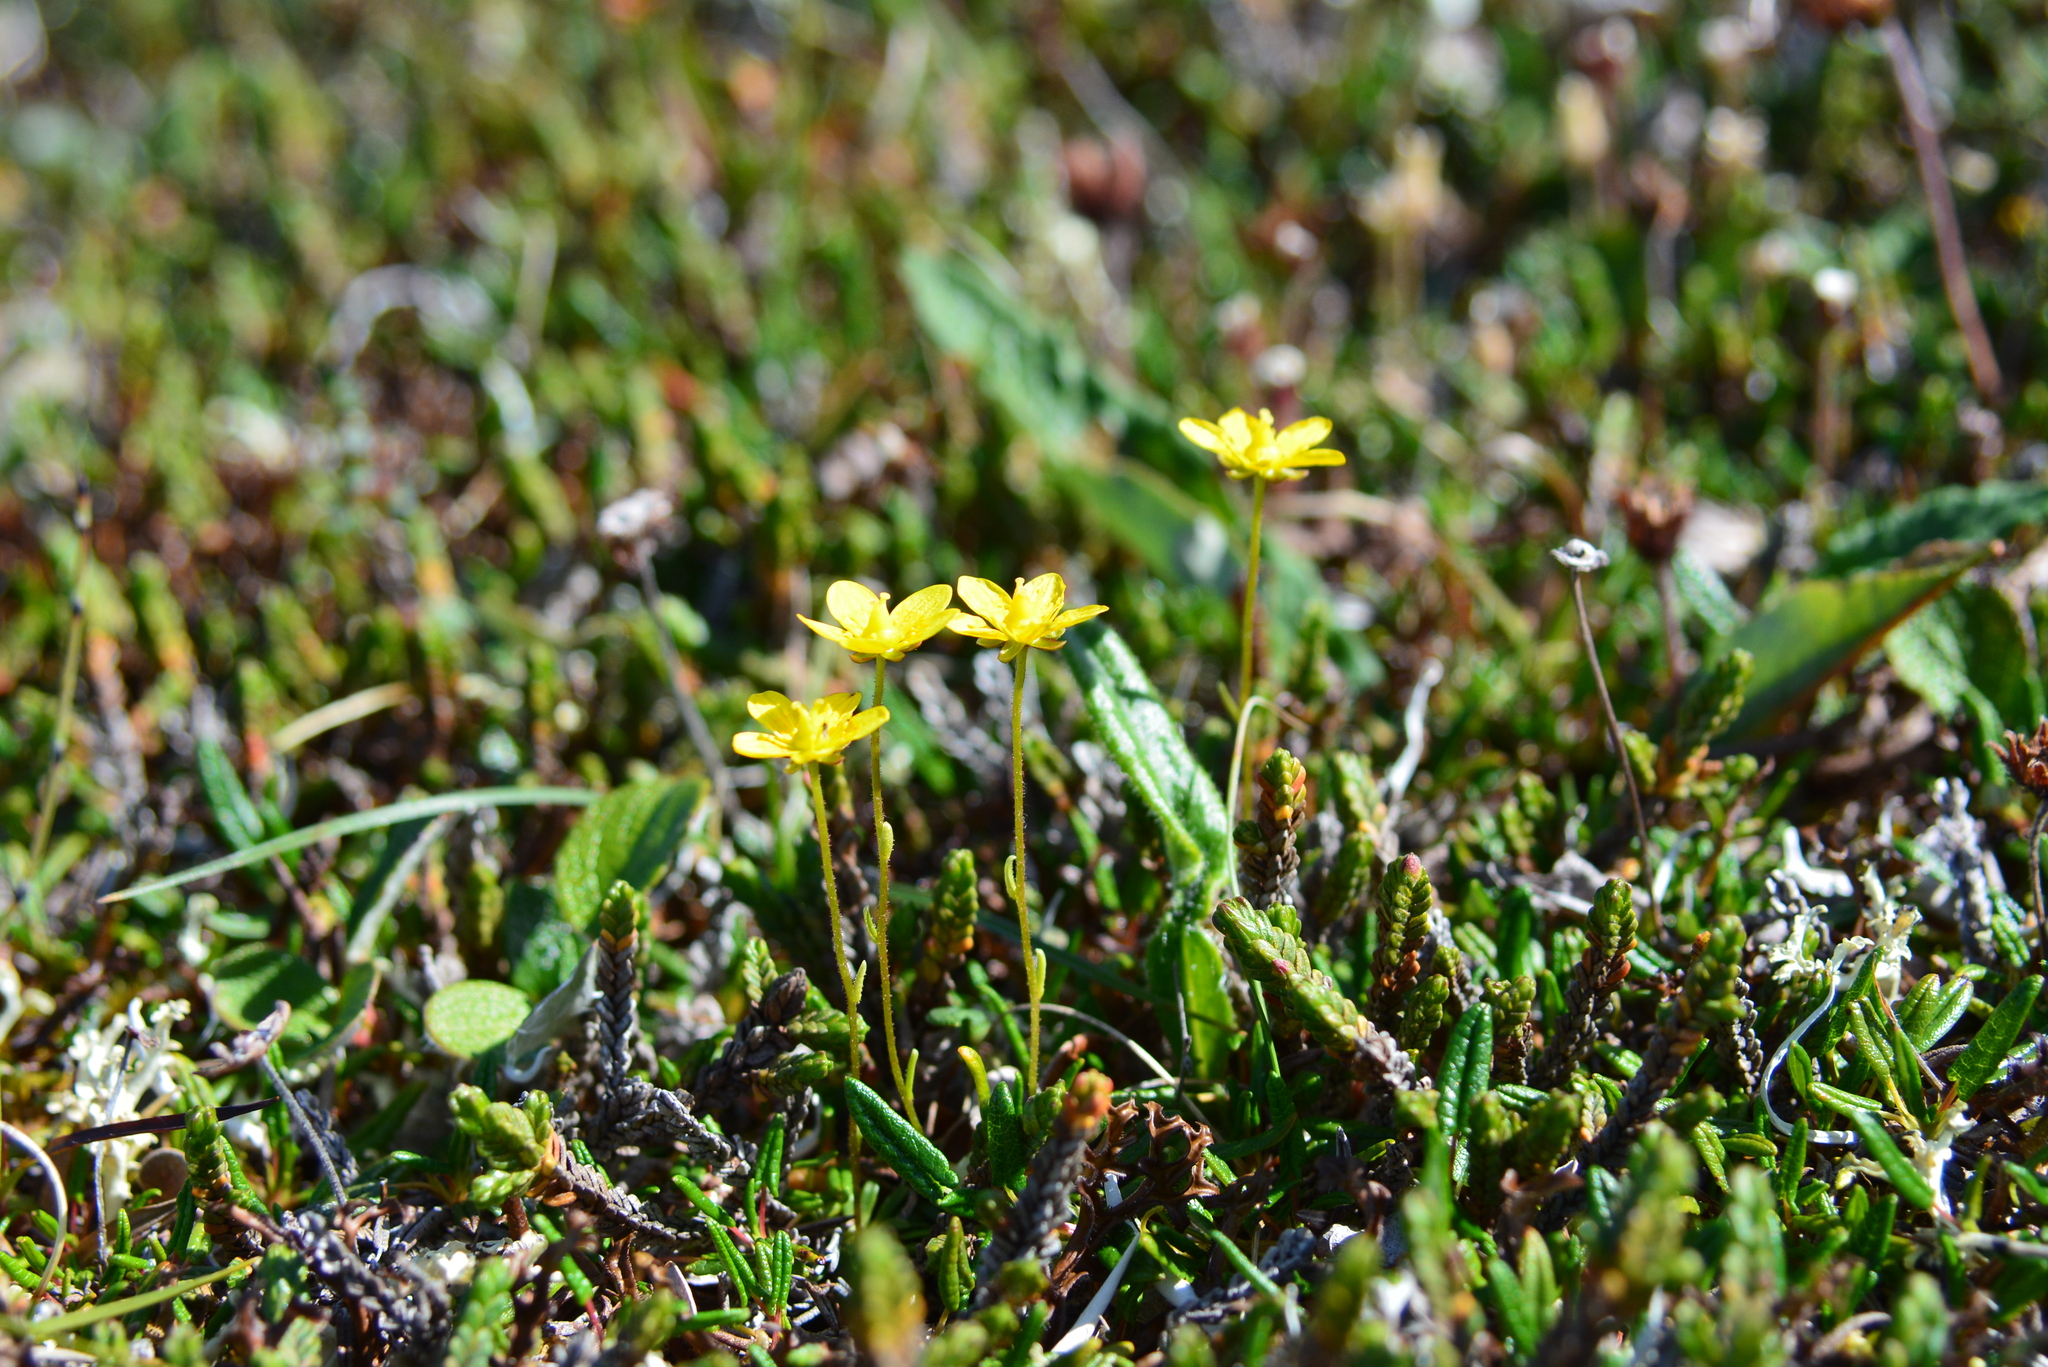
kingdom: Plantae
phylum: Tracheophyta
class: Magnoliopsida
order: Saxifragales
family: Saxifragaceae
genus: Saxifraga
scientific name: Saxifraga serpyllifolia
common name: Thyme-leaved saxifrage
